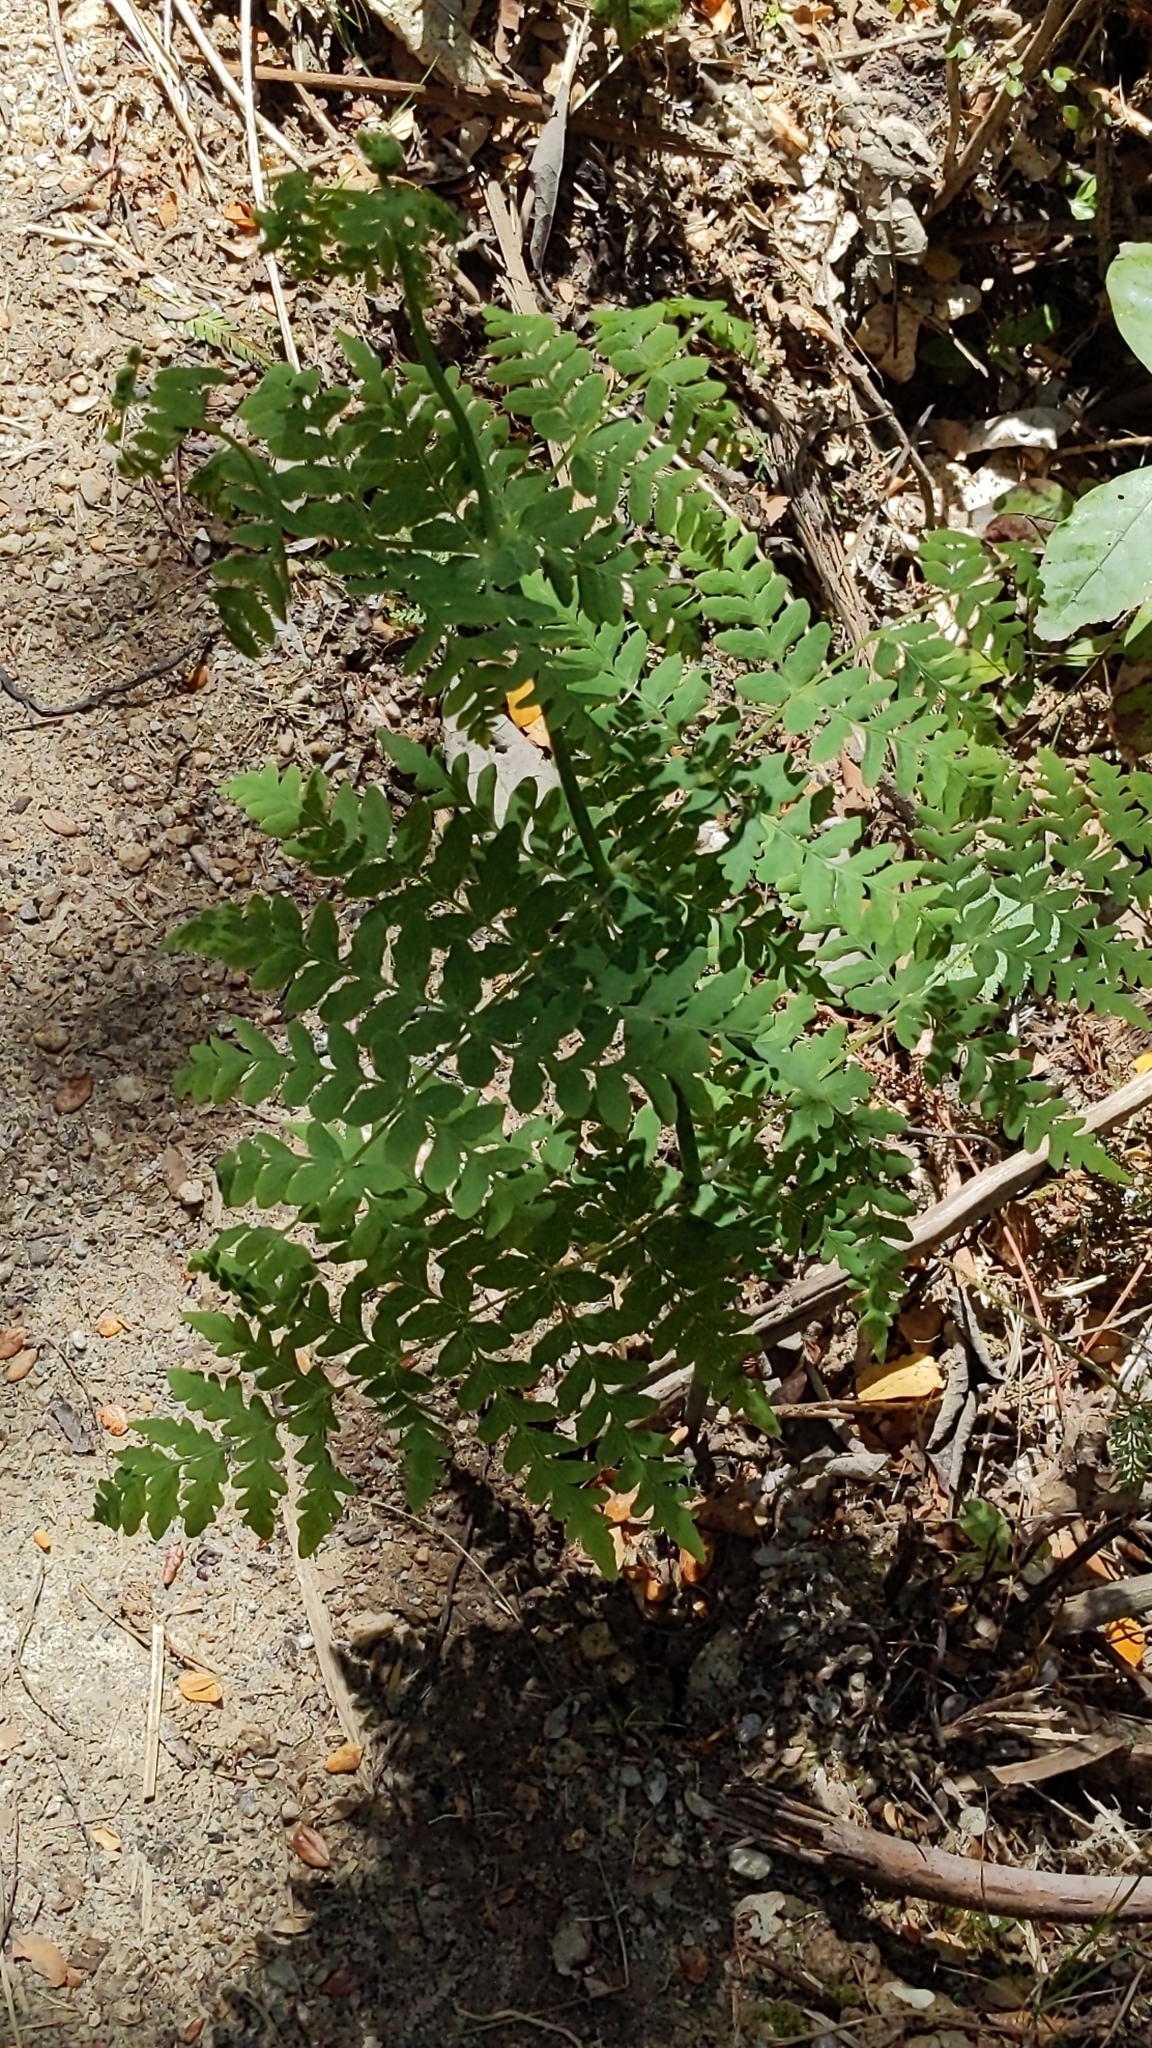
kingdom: Plantae
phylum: Tracheophyta
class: Polypodiopsida
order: Polypodiales
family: Dennstaedtiaceae
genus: Histiopteris
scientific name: Histiopteris incisa
